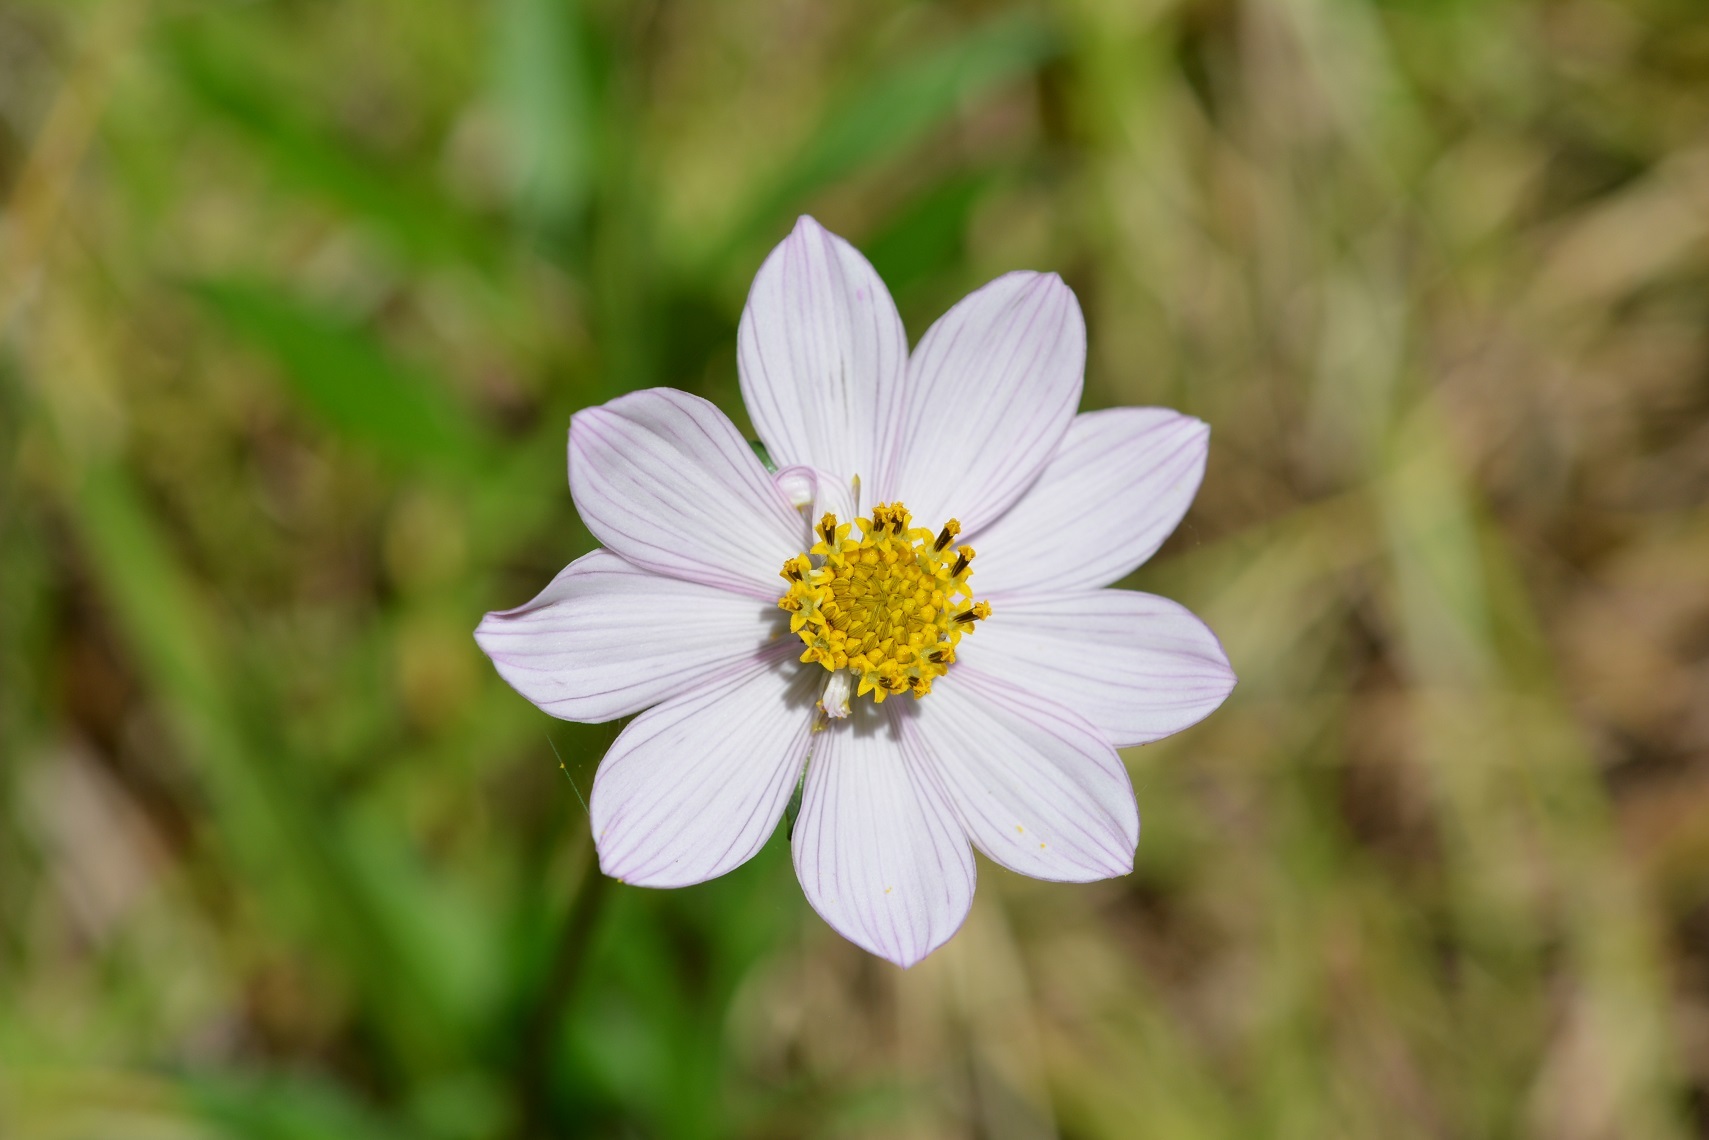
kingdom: Plantae
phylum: Tracheophyta
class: Magnoliopsida
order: Asterales
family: Asteraceae
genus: Cosmos
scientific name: Cosmos diversifolius
